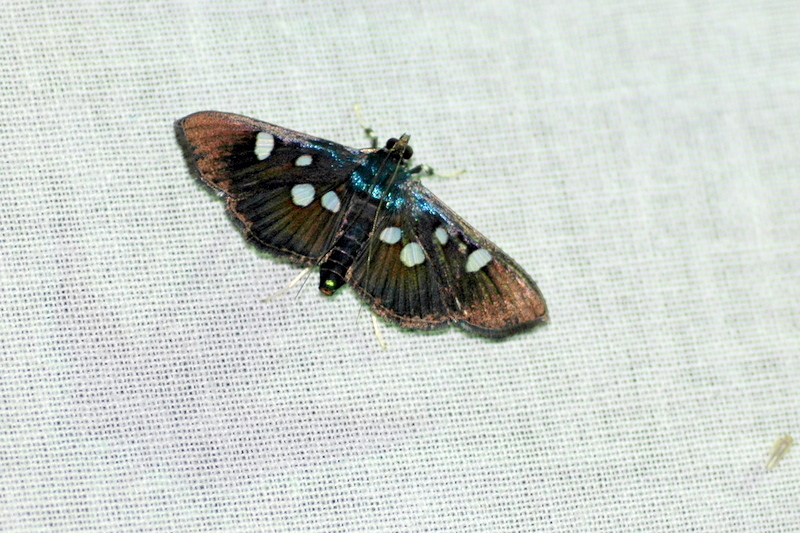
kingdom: Animalia
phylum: Arthropoda
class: Insecta
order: Lepidoptera
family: Crambidae
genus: Pygospila
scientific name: Pygospila
